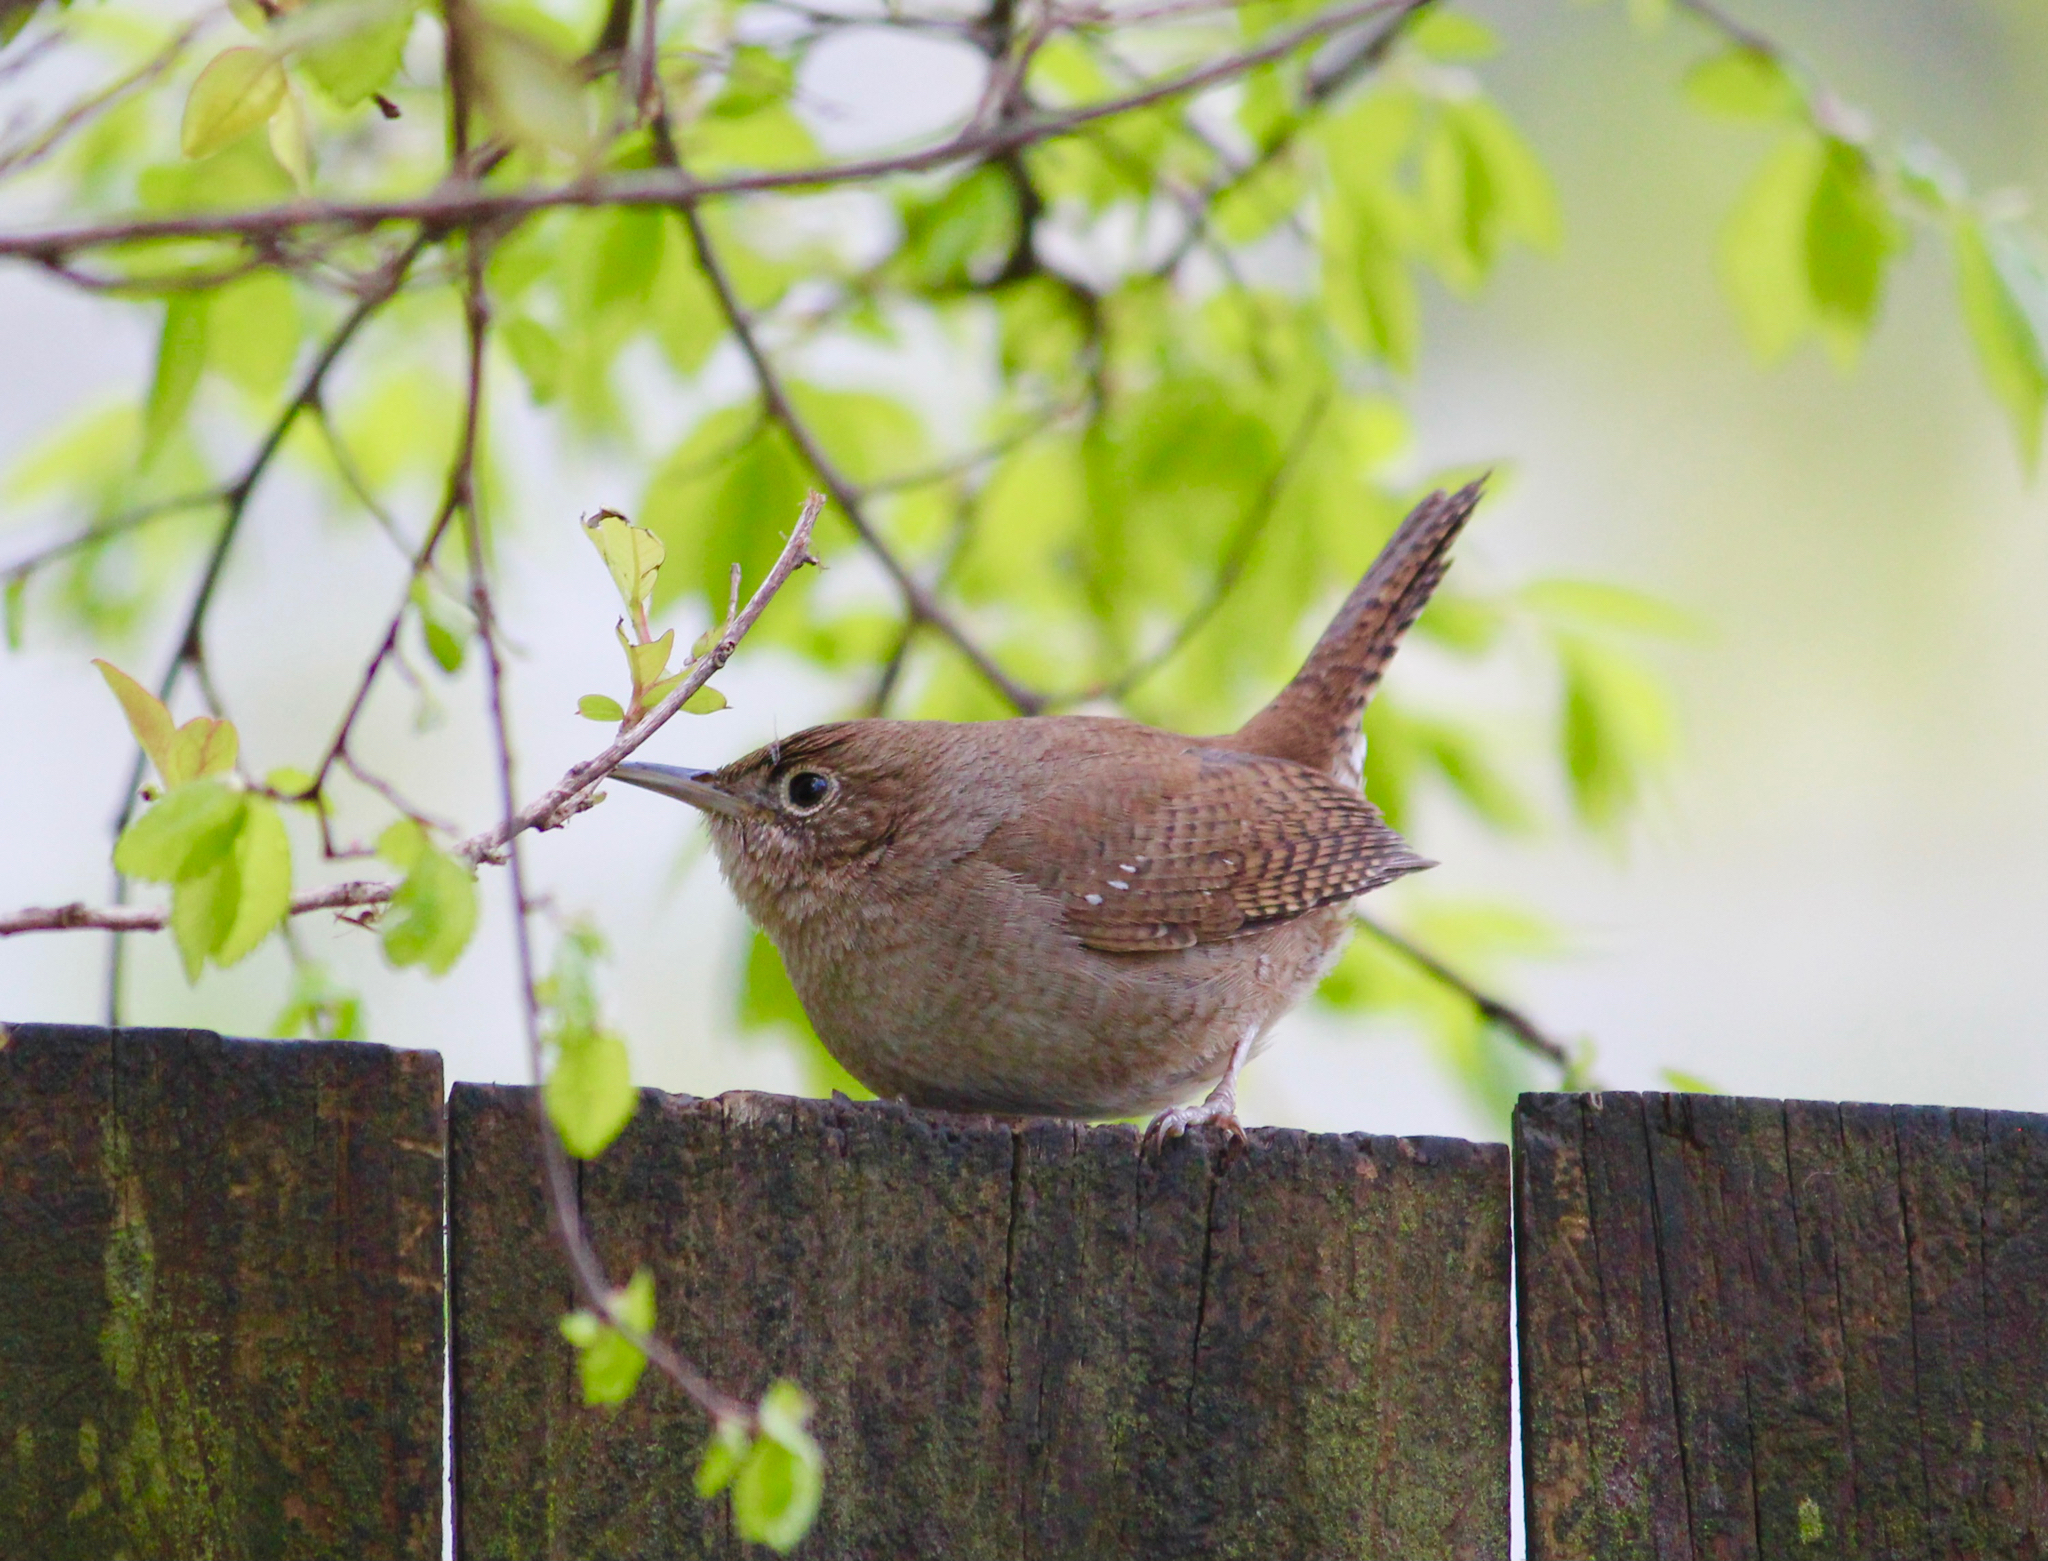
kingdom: Animalia
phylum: Chordata
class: Aves
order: Passeriformes
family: Troglodytidae
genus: Troglodytes
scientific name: Troglodytes aedon
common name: House wren
